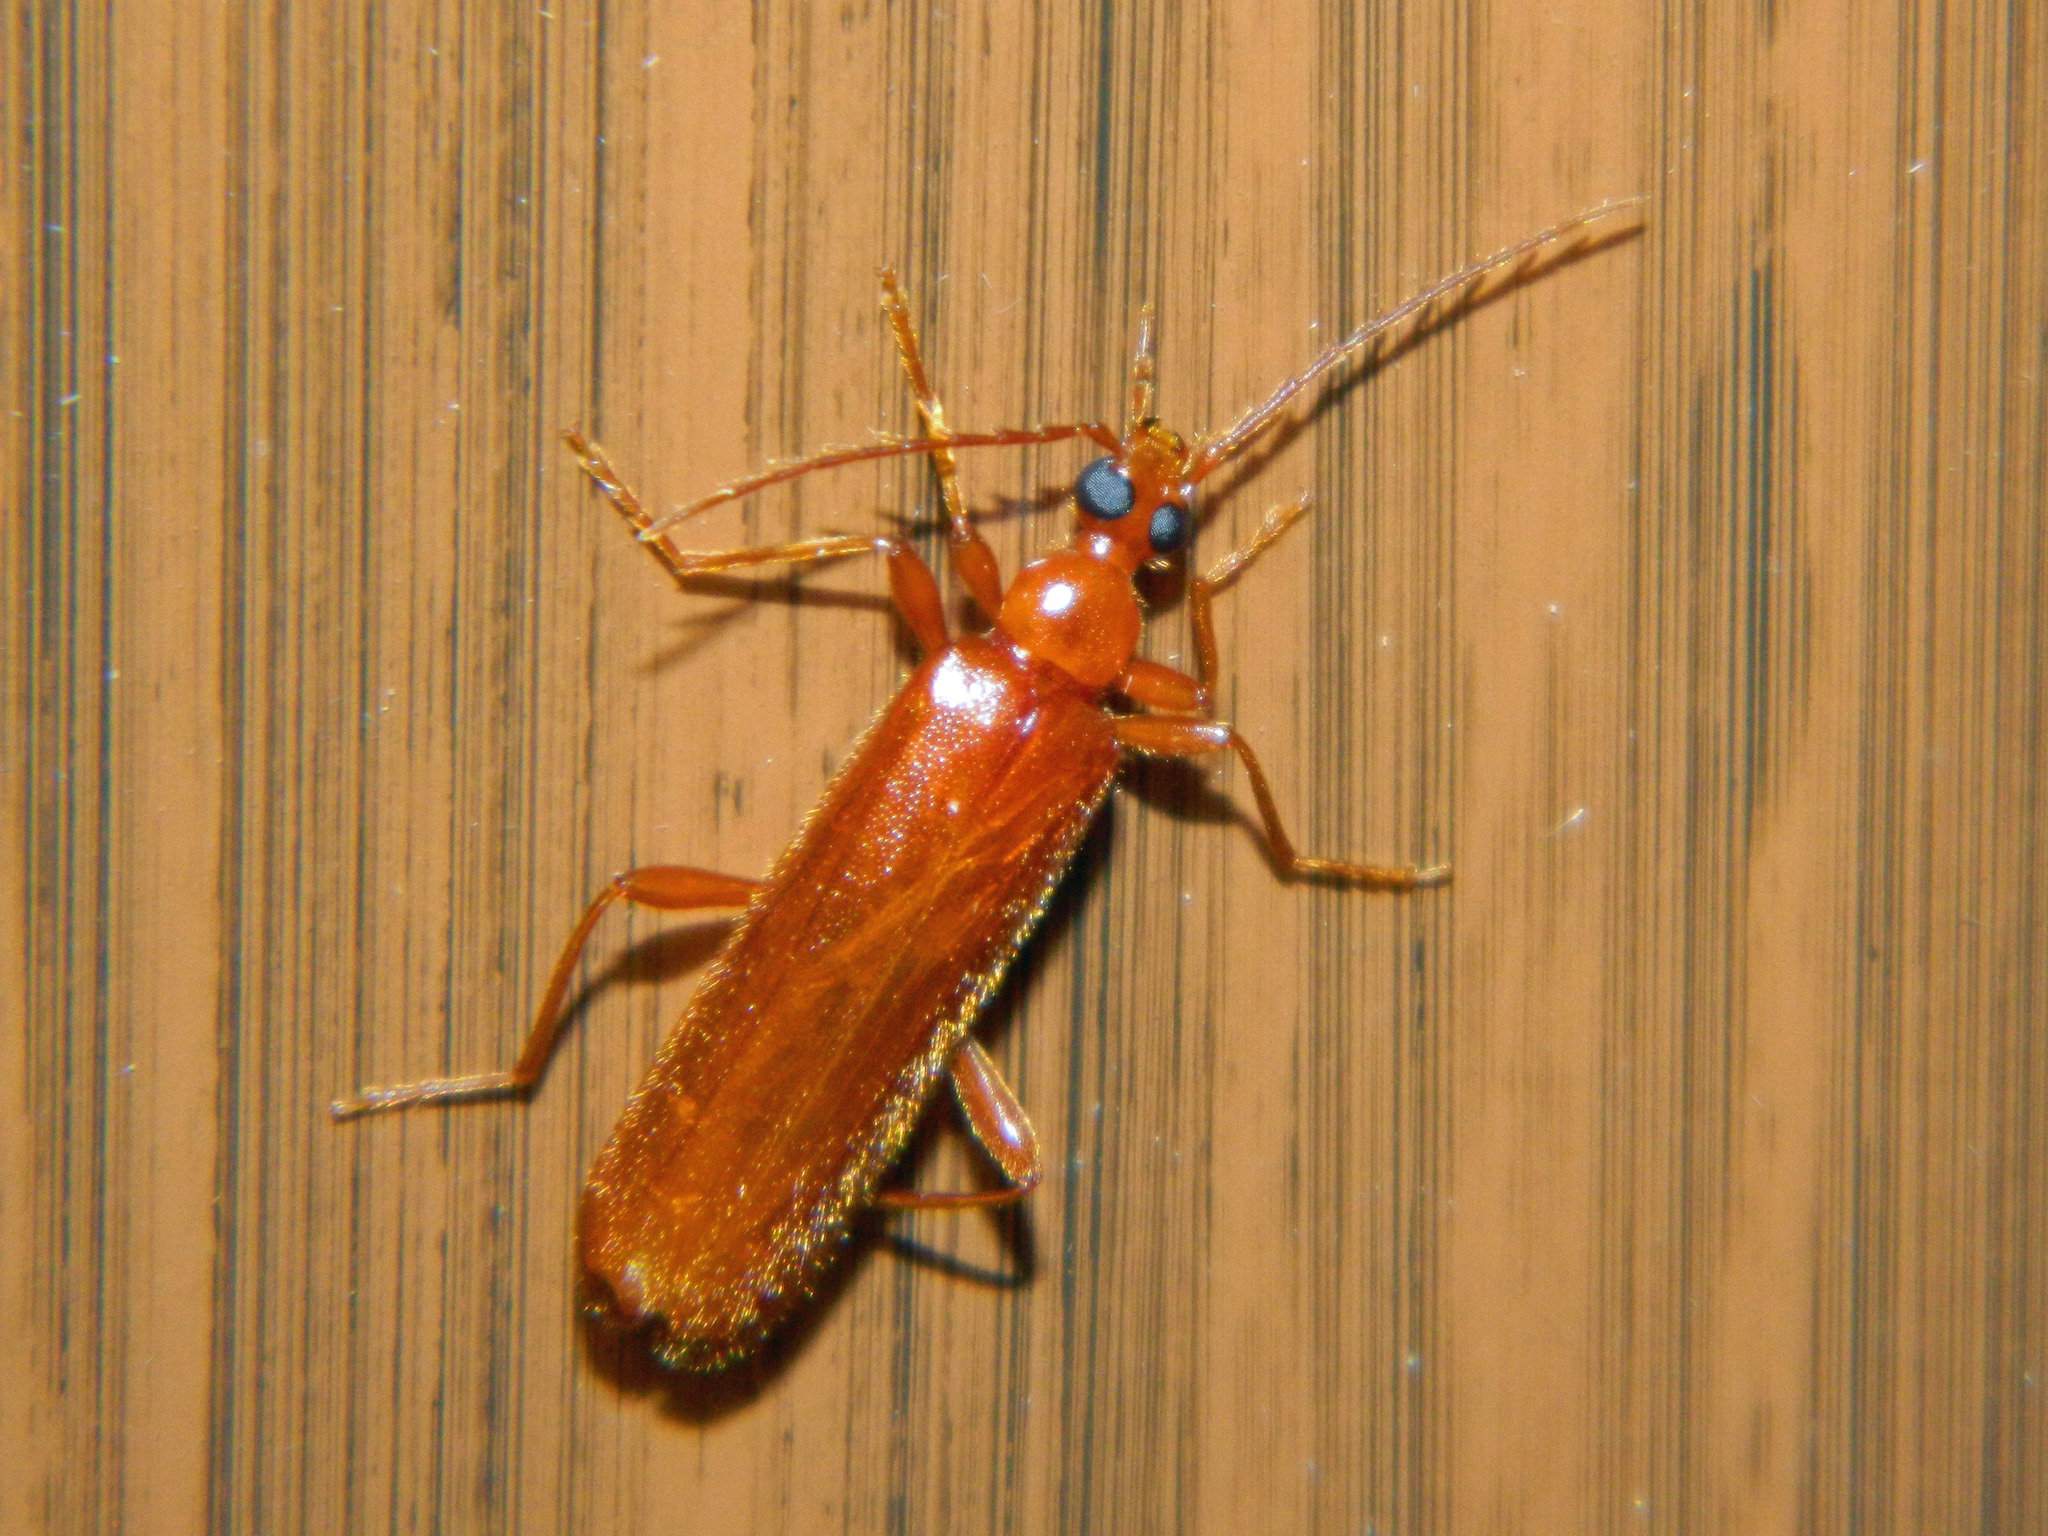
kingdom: Animalia
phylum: Arthropoda
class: Insecta
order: Coleoptera
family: Pyrochroidae
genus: Dendroides
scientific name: Dendroides concolor
